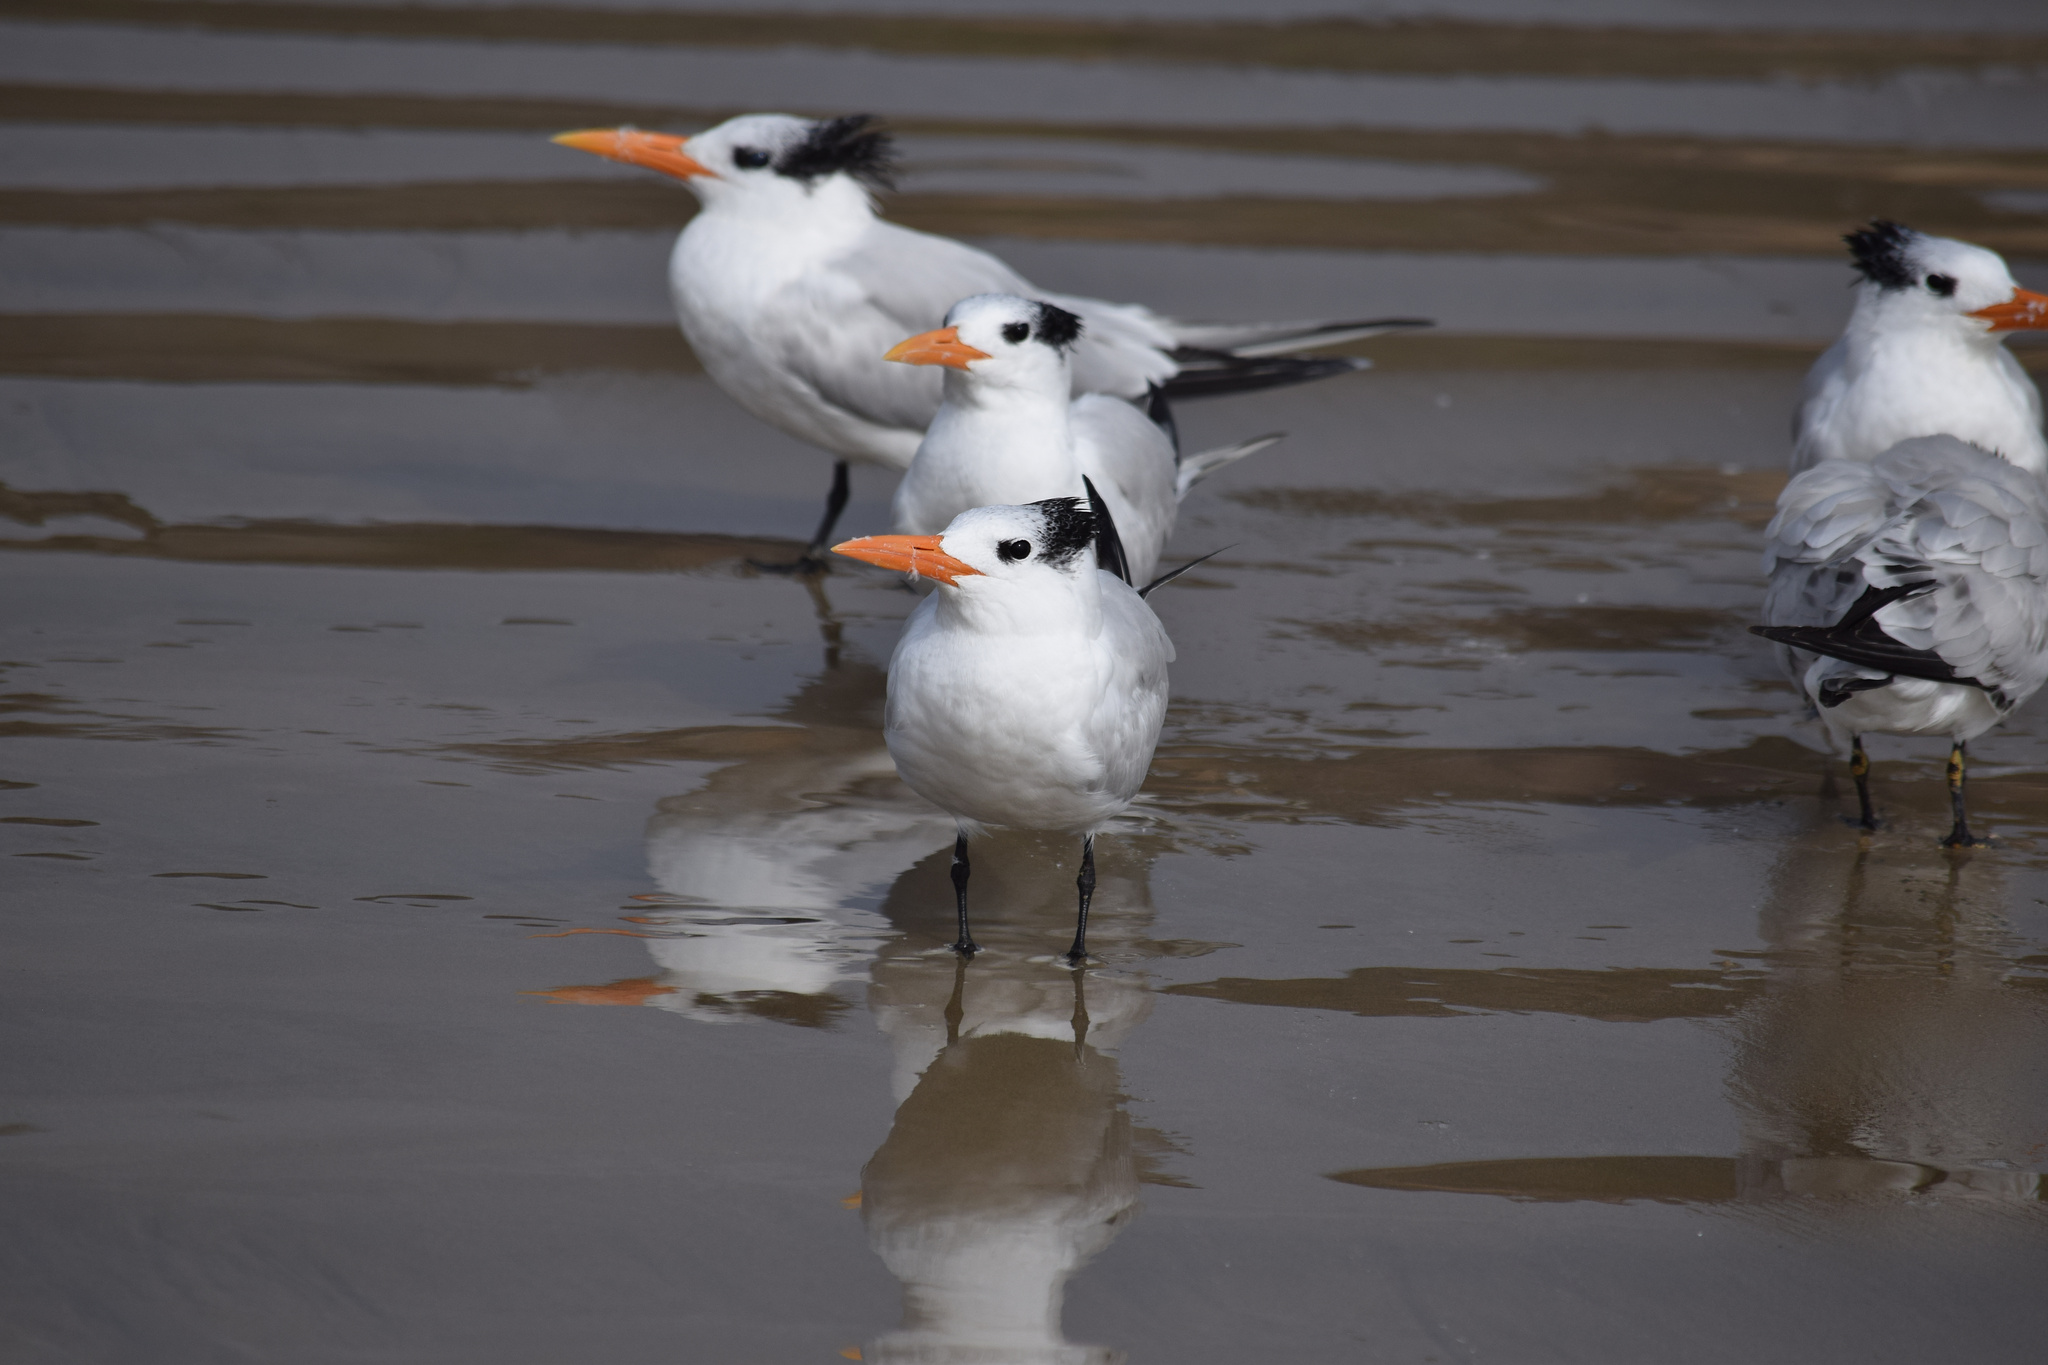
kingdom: Animalia
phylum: Chordata
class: Aves
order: Charadriiformes
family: Laridae
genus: Thalasseus
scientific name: Thalasseus maximus
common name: Royal tern
